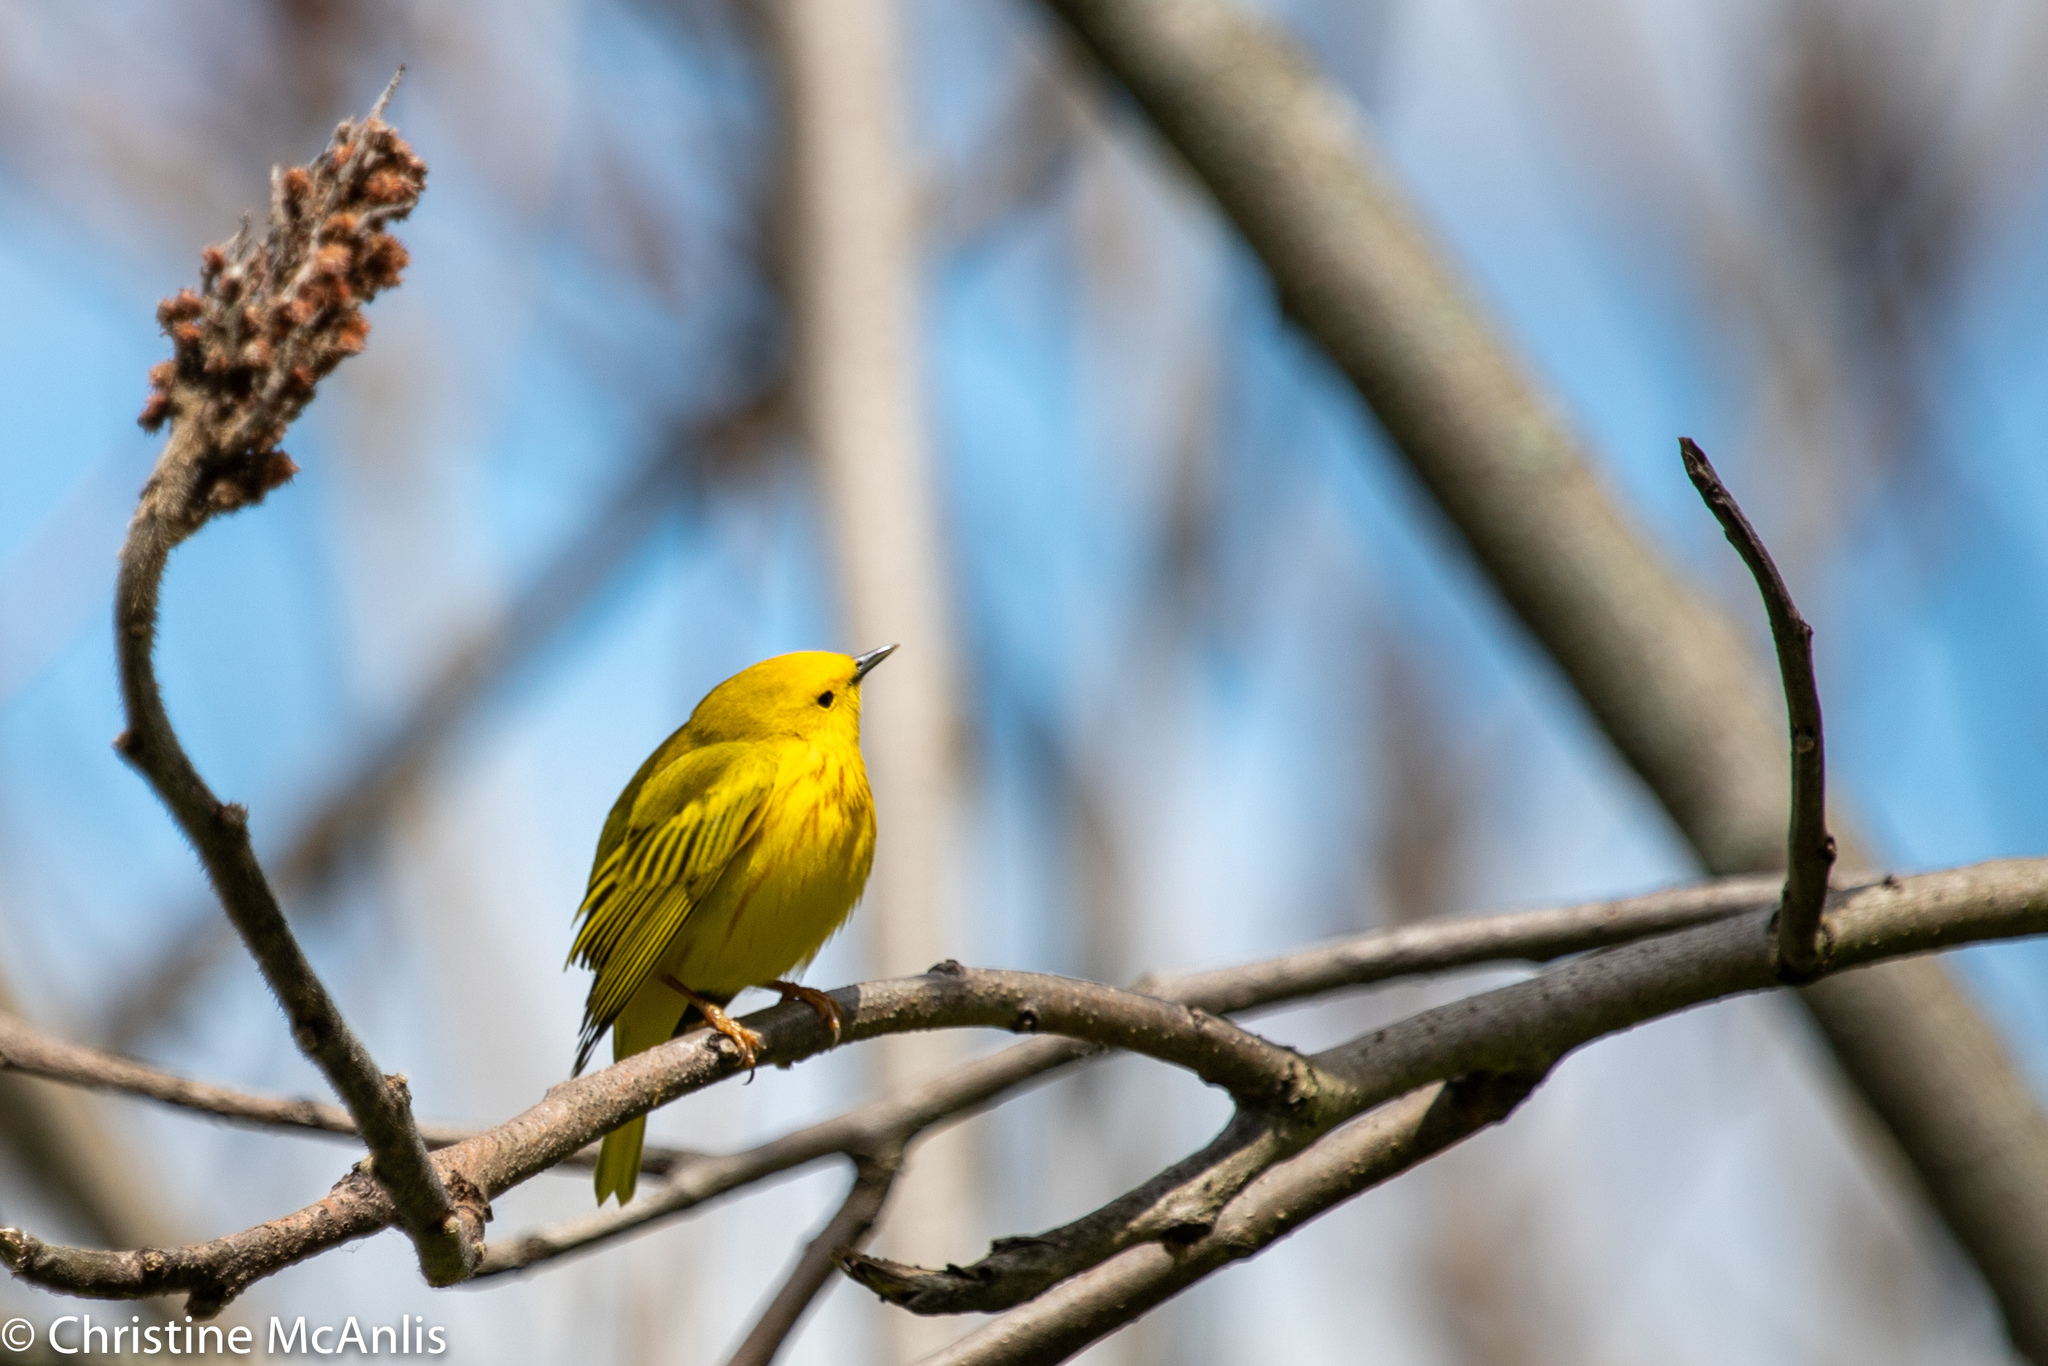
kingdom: Animalia
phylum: Chordata
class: Aves
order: Passeriformes
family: Parulidae
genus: Setophaga
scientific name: Setophaga petechia
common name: Yellow warbler
